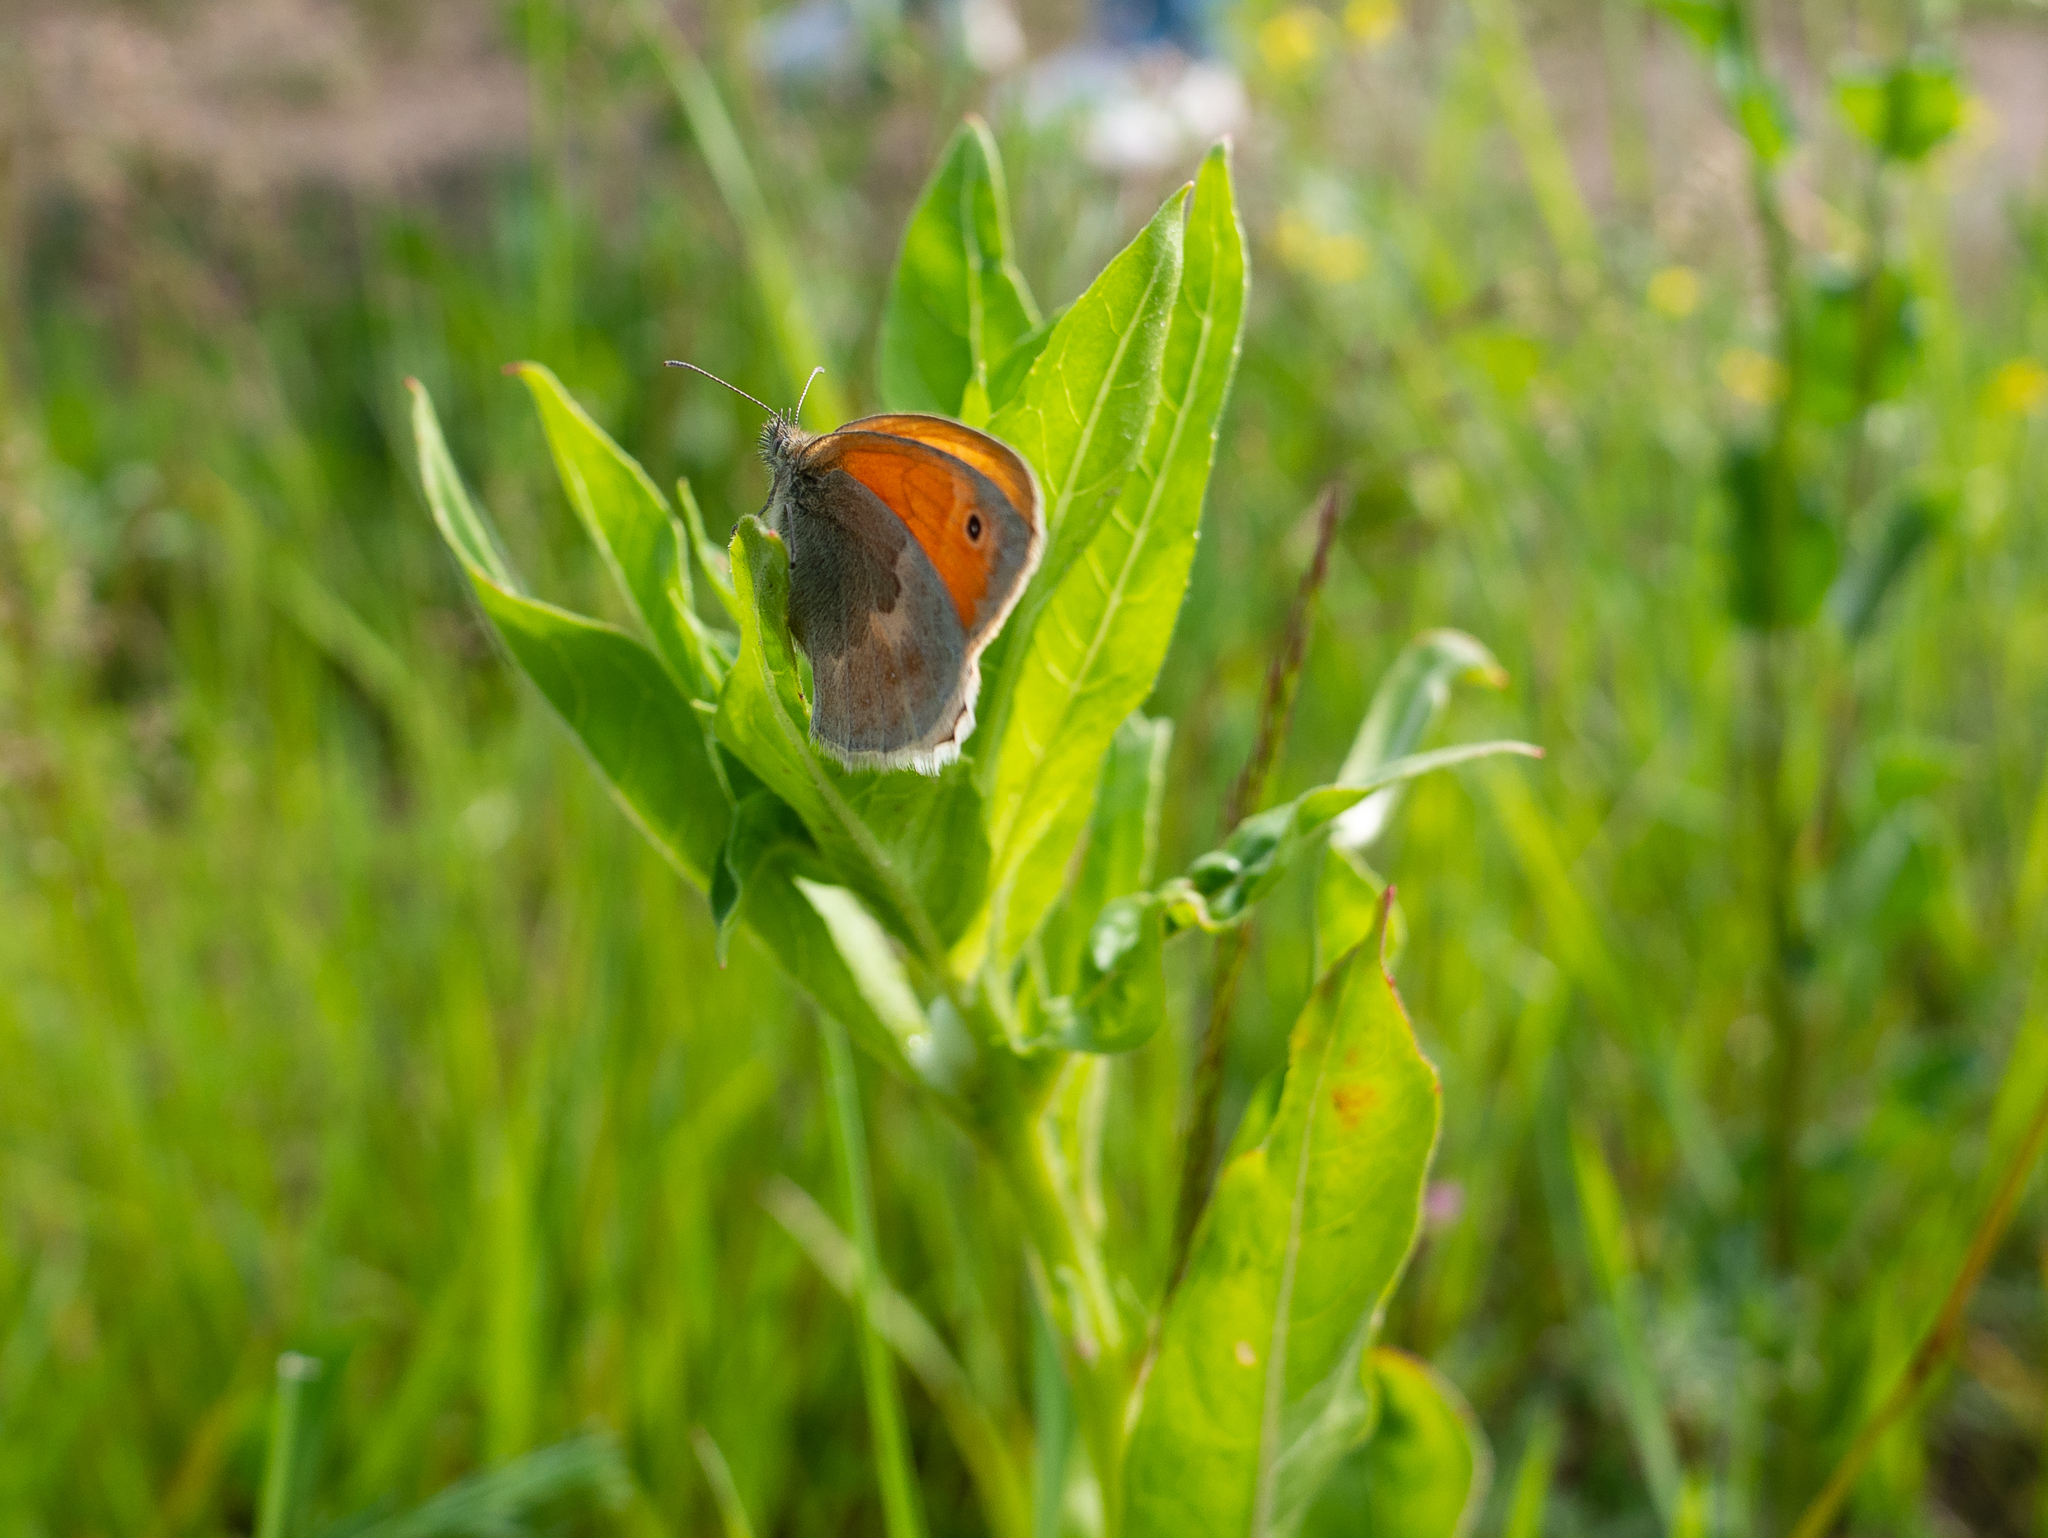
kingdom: Animalia
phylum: Arthropoda
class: Insecta
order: Lepidoptera
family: Nymphalidae
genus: Coenonympha
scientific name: Coenonympha pamphilus
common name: Small heath
